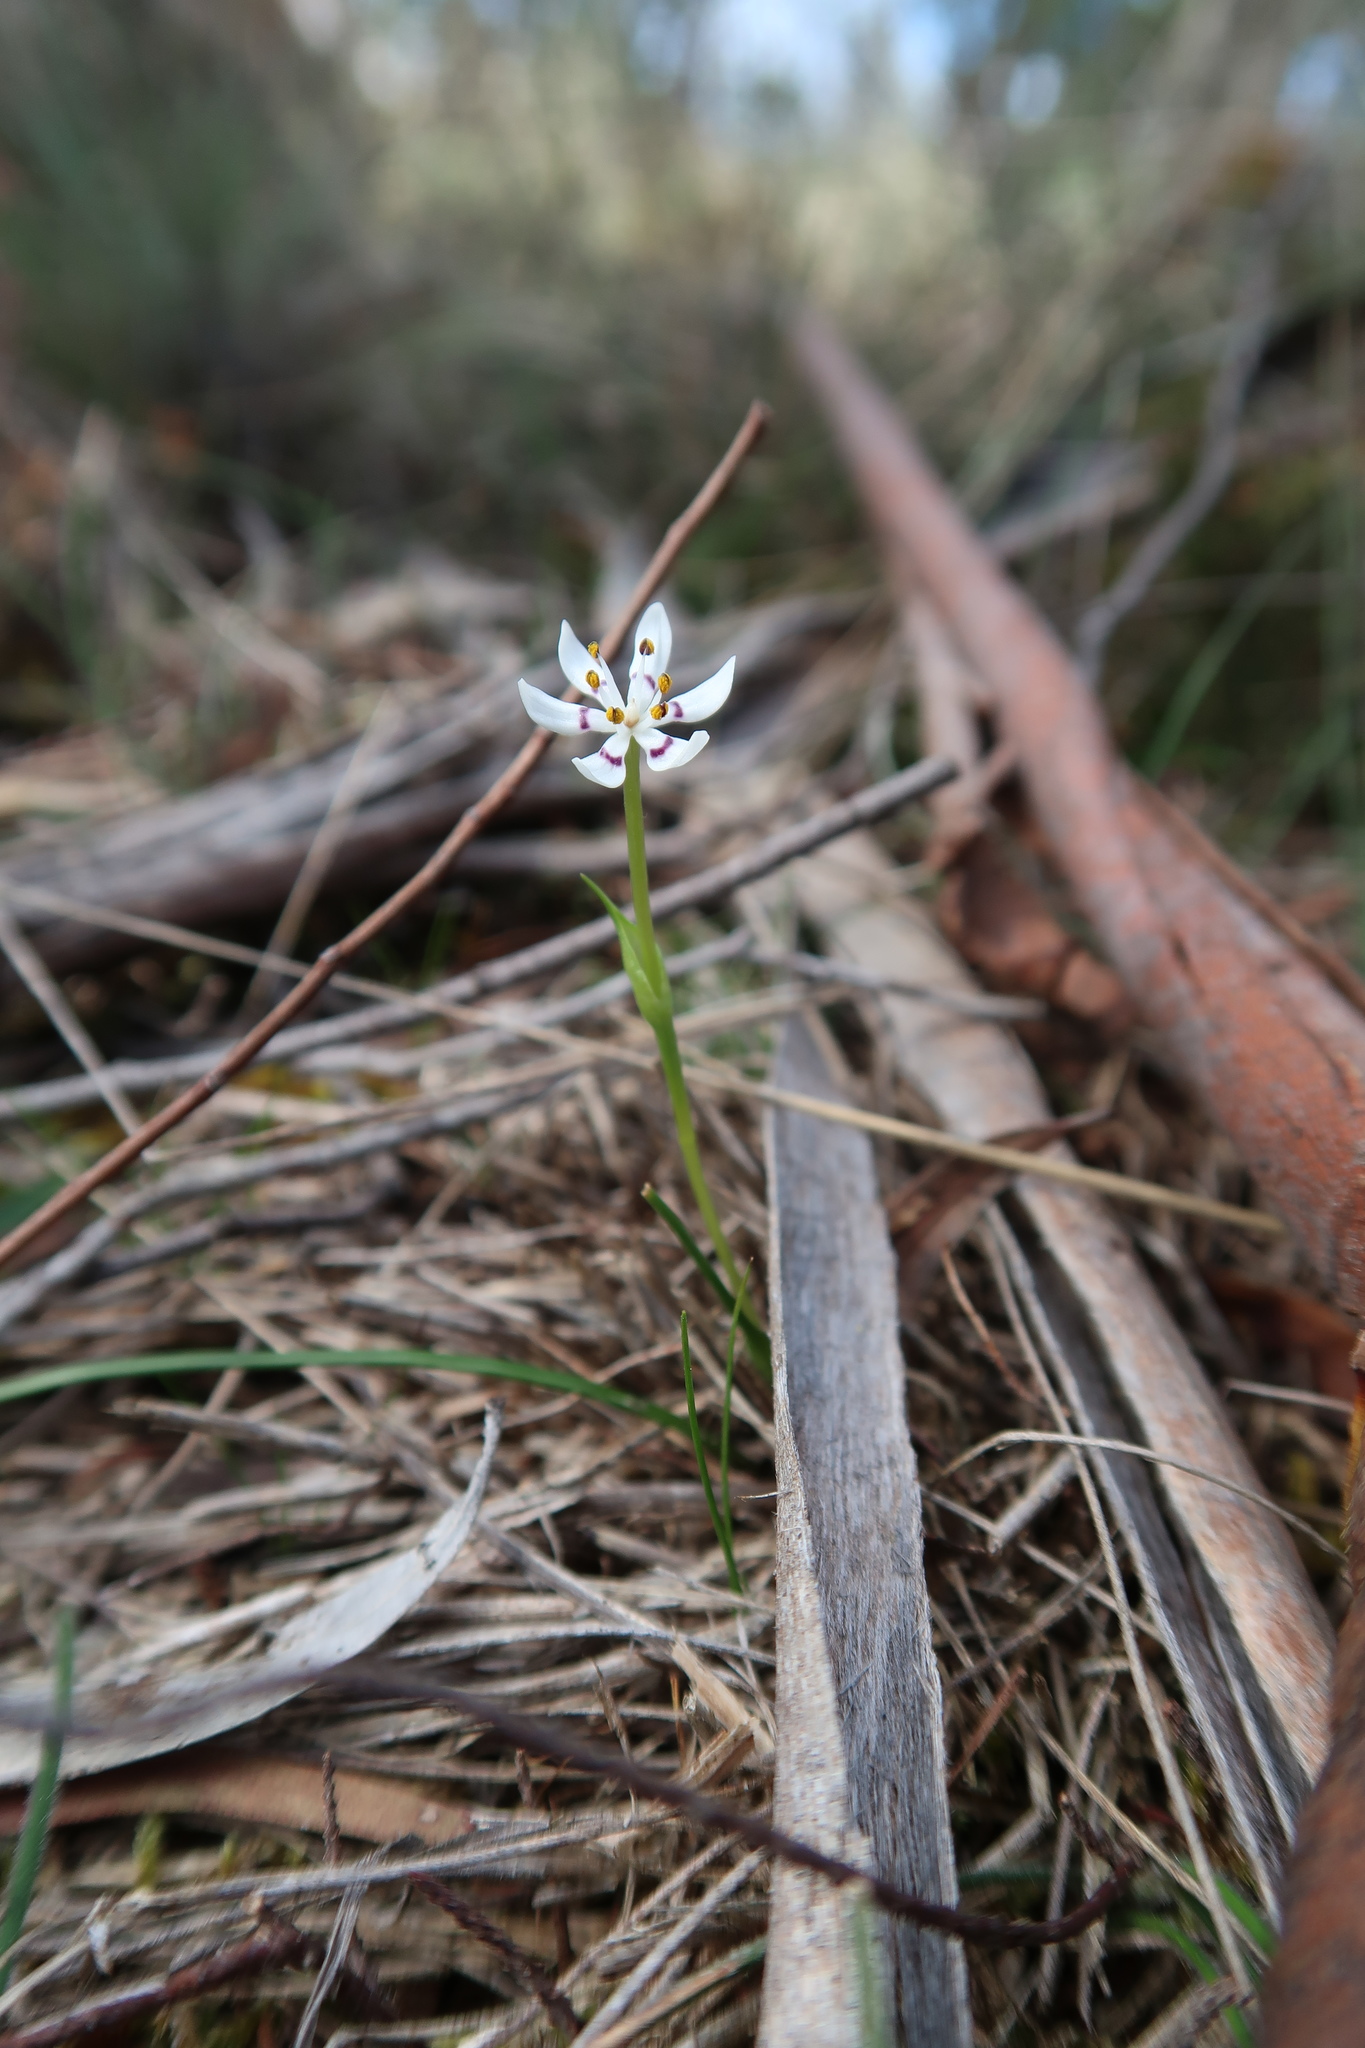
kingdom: Plantae
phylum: Tracheophyta
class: Liliopsida
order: Liliales
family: Colchicaceae
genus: Wurmbea
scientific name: Wurmbea dioica
